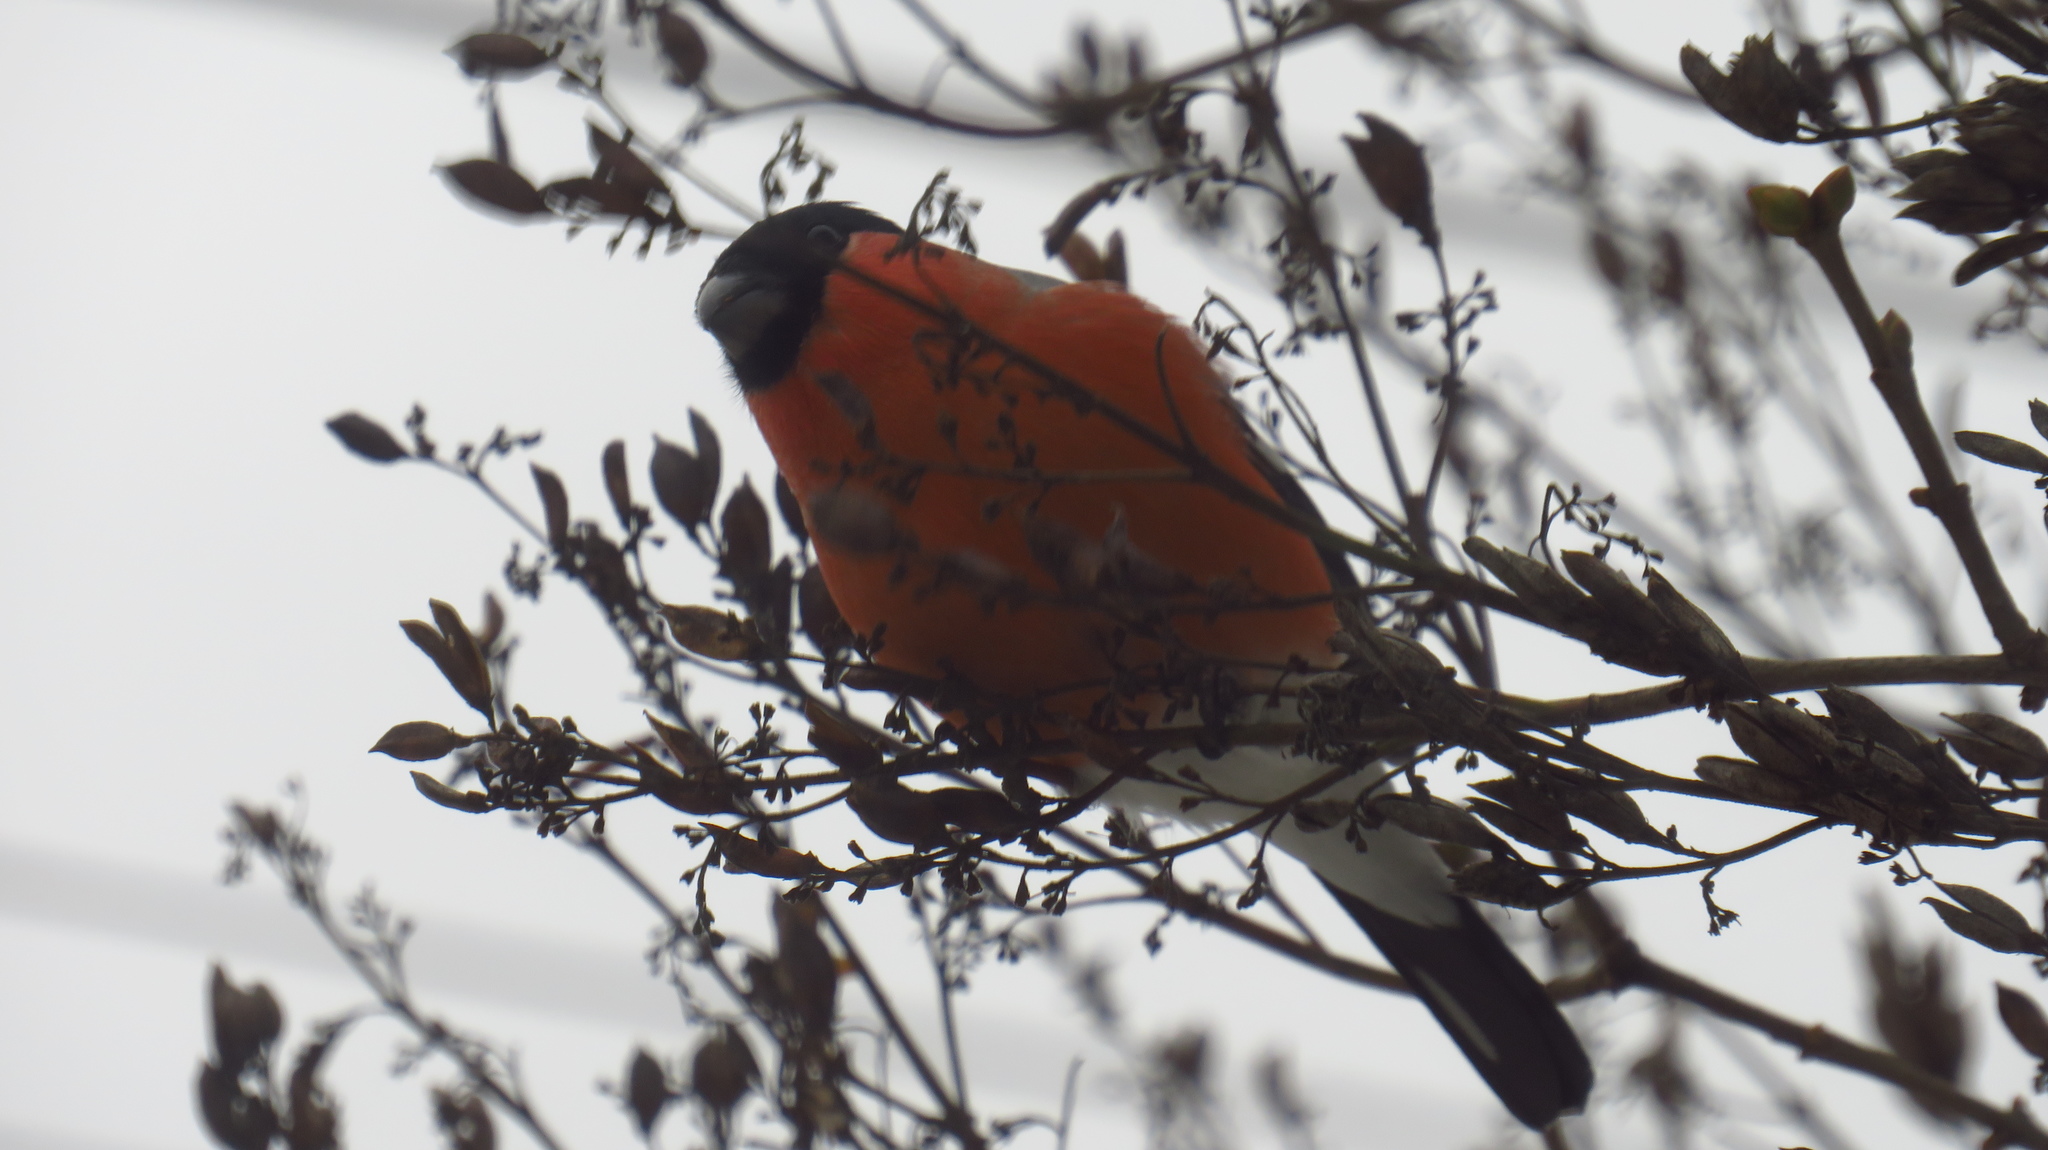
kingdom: Animalia
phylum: Chordata
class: Aves
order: Passeriformes
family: Fringillidae
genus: Pyrrhula
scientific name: Pyrrhula pyrrhula
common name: Eurasian bullfinch
